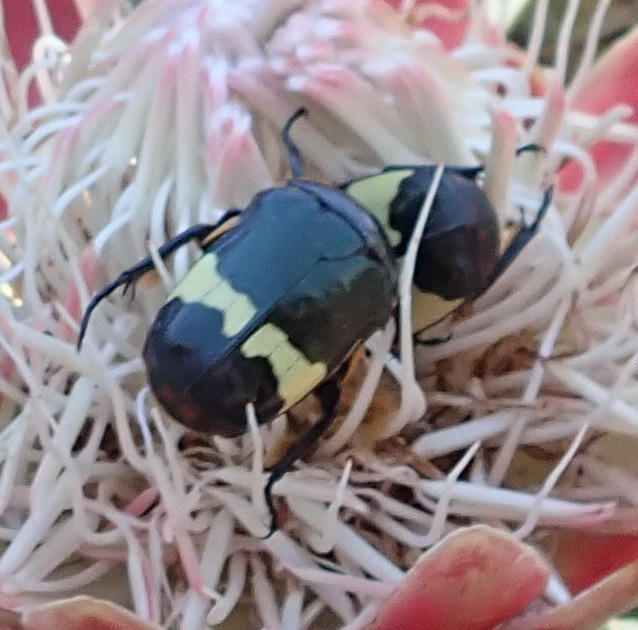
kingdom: Animalia
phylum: Arthropoda
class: Insecta
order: Coleoptera
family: Scarabaeidae
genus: Pedinorrhina
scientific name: Pedinorrhina
